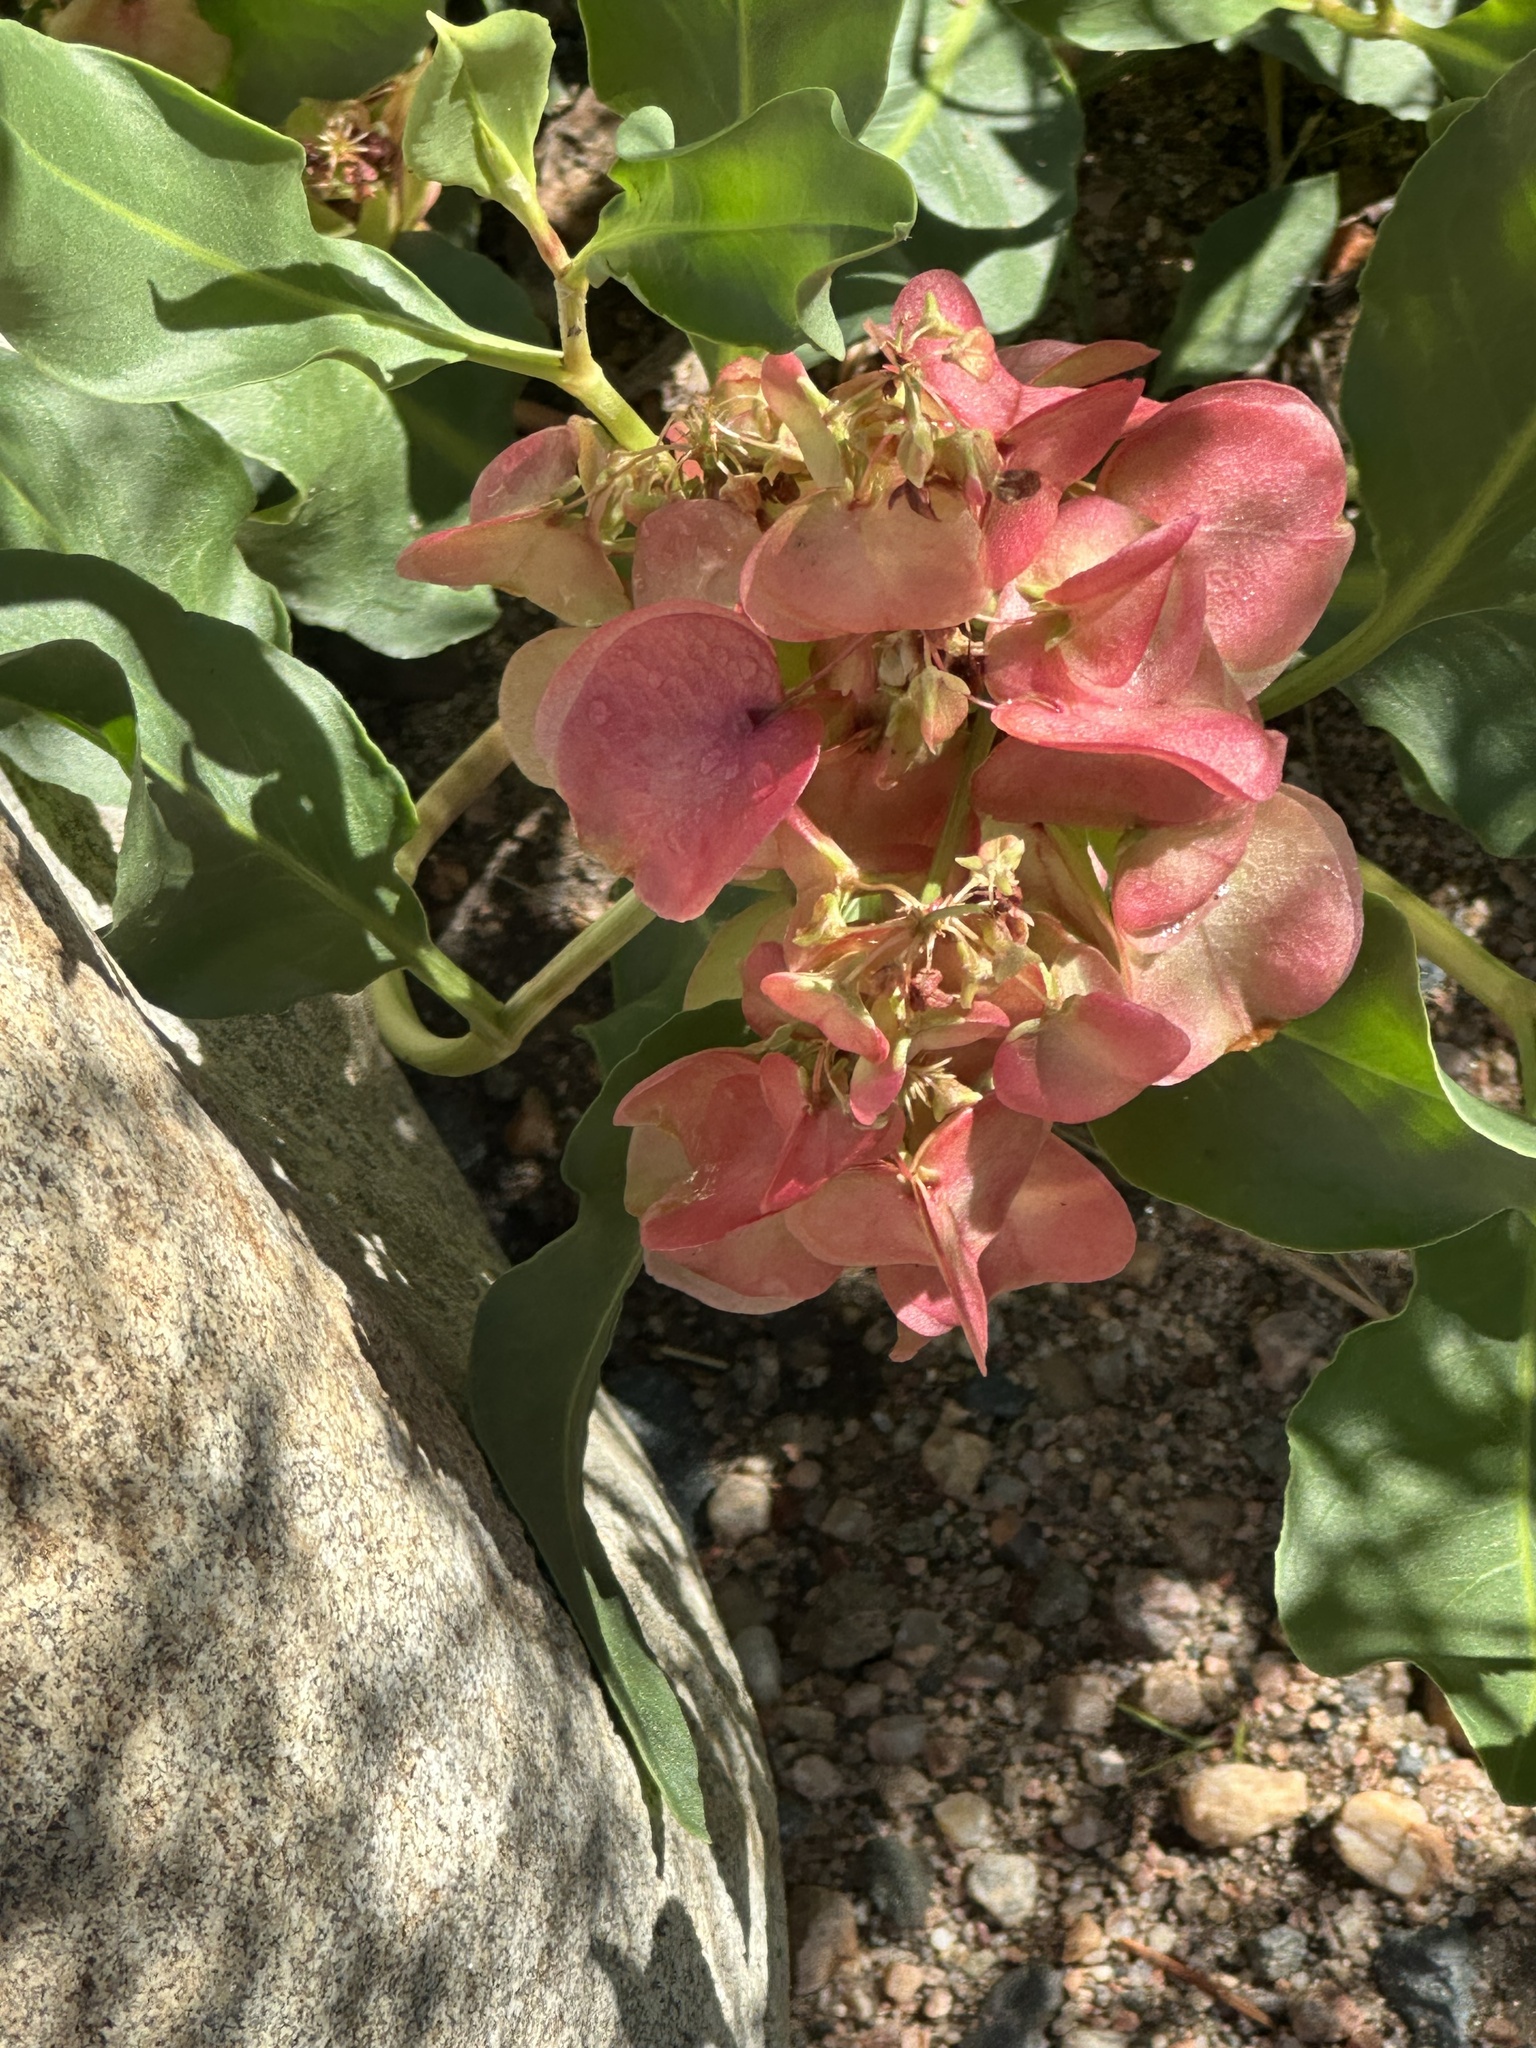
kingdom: Plantae
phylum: Tracheophyta
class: Magnoliopsida
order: Caryophyllales
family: Polygonaceae
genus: Rumex
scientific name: Rumex venosus
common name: Winged dock
